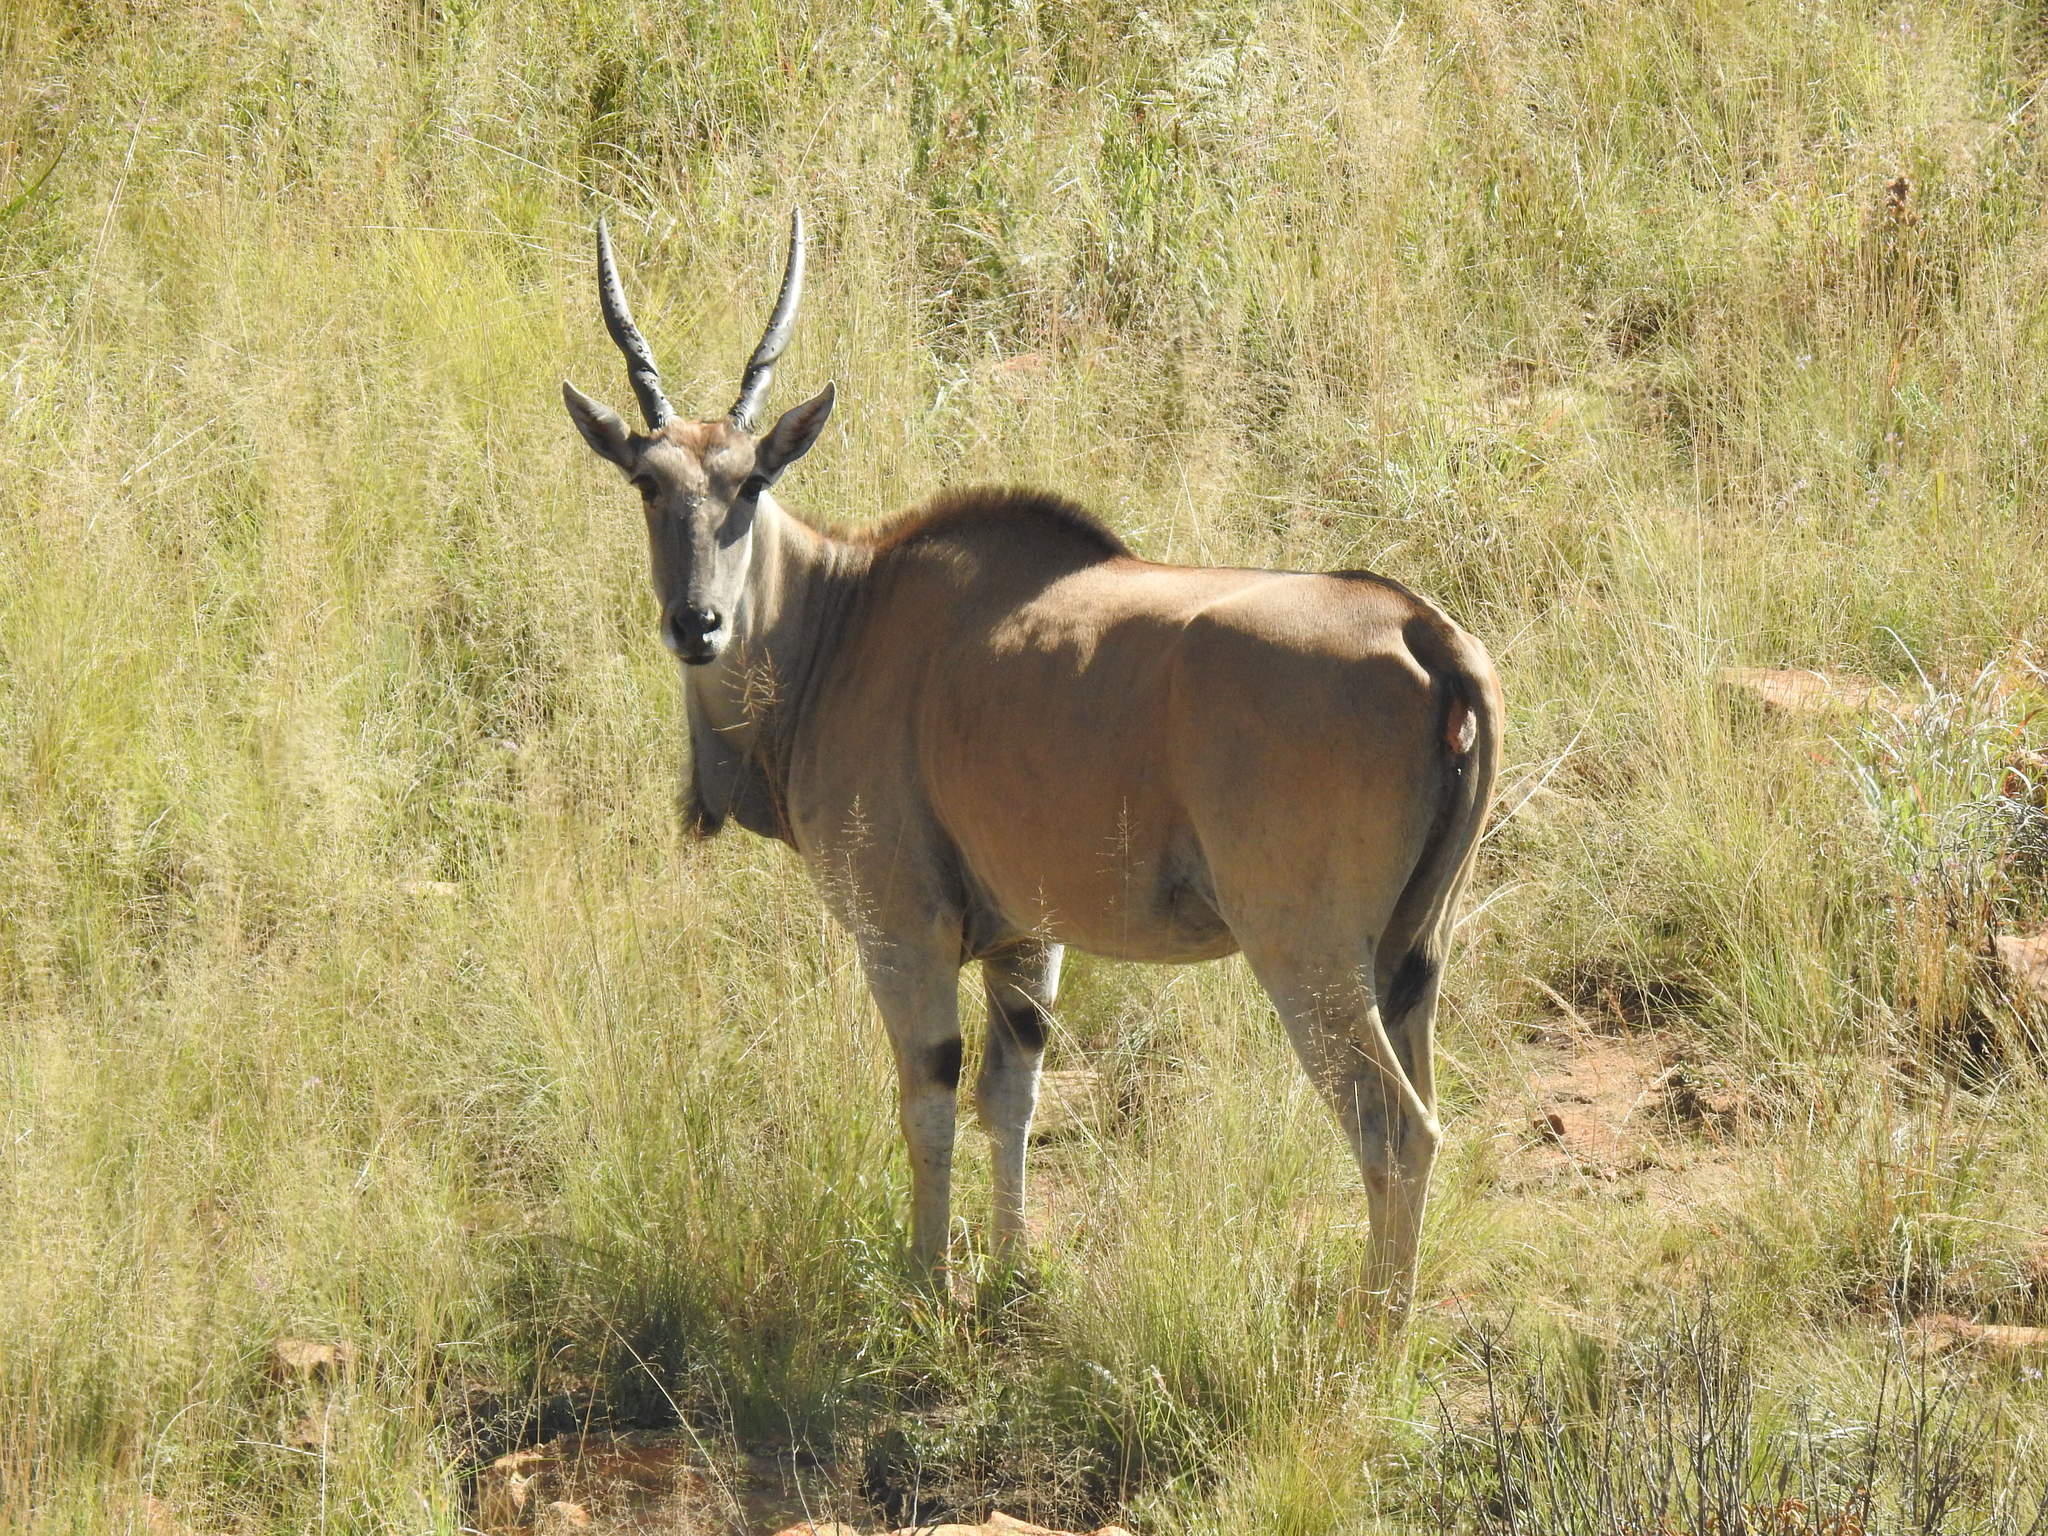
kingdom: Animalia
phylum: Chordata
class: Mammalia
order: Artiodactyla
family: Bovidae
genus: Taurotragus
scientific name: Taurotragus oryx
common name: Common eland
